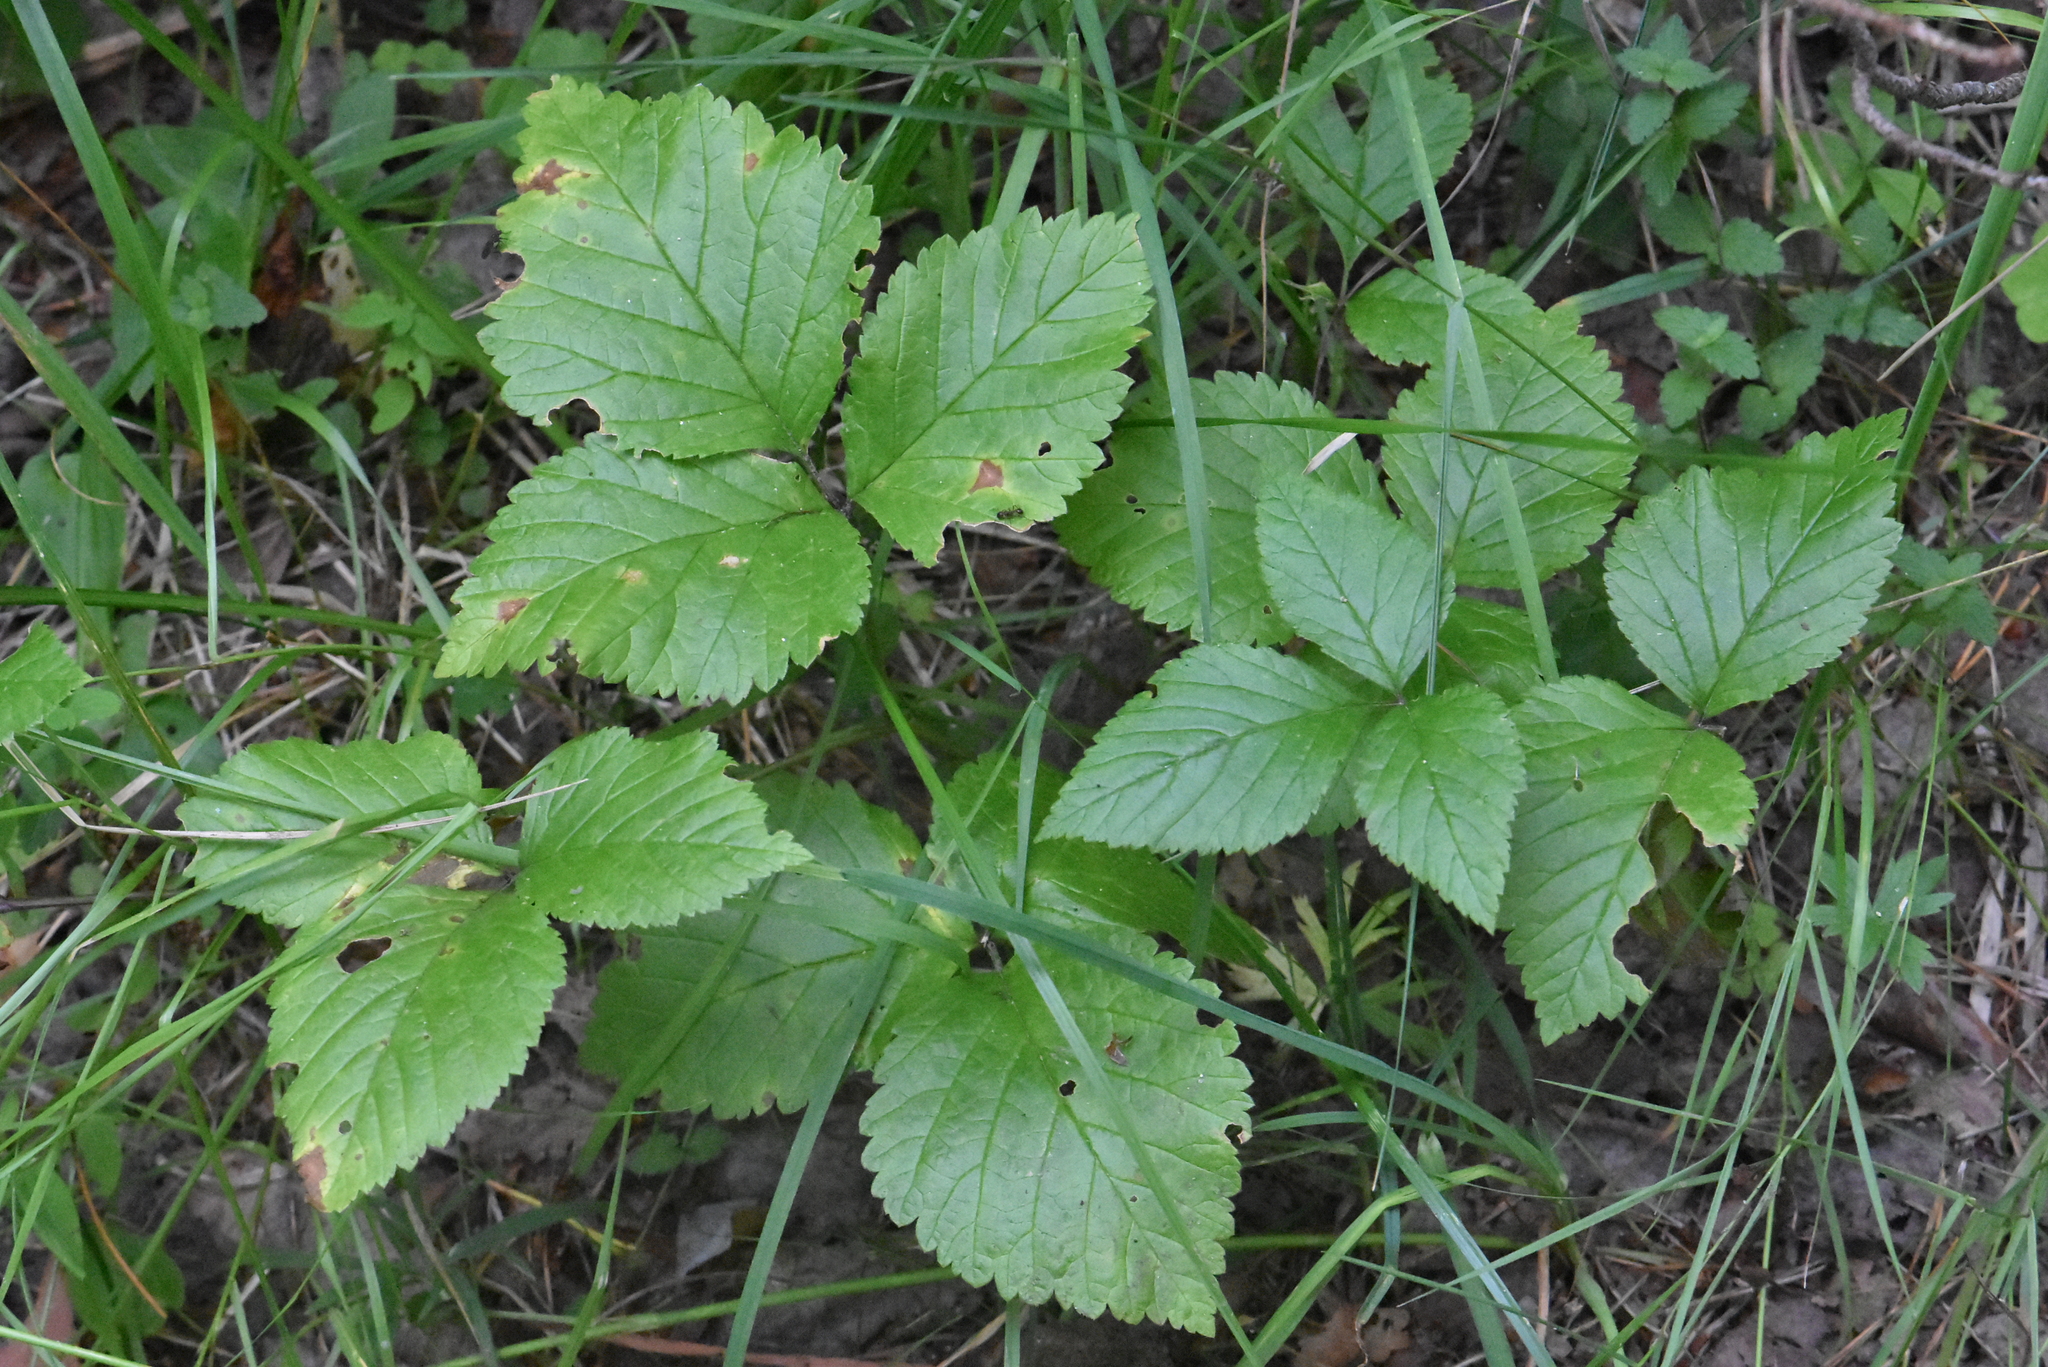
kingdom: Plantae
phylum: Tracheophyta
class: Magnoliopsida
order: Rosales
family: Rosaceae
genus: Rubus
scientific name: Rubus saxatilis
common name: Stone bramble
